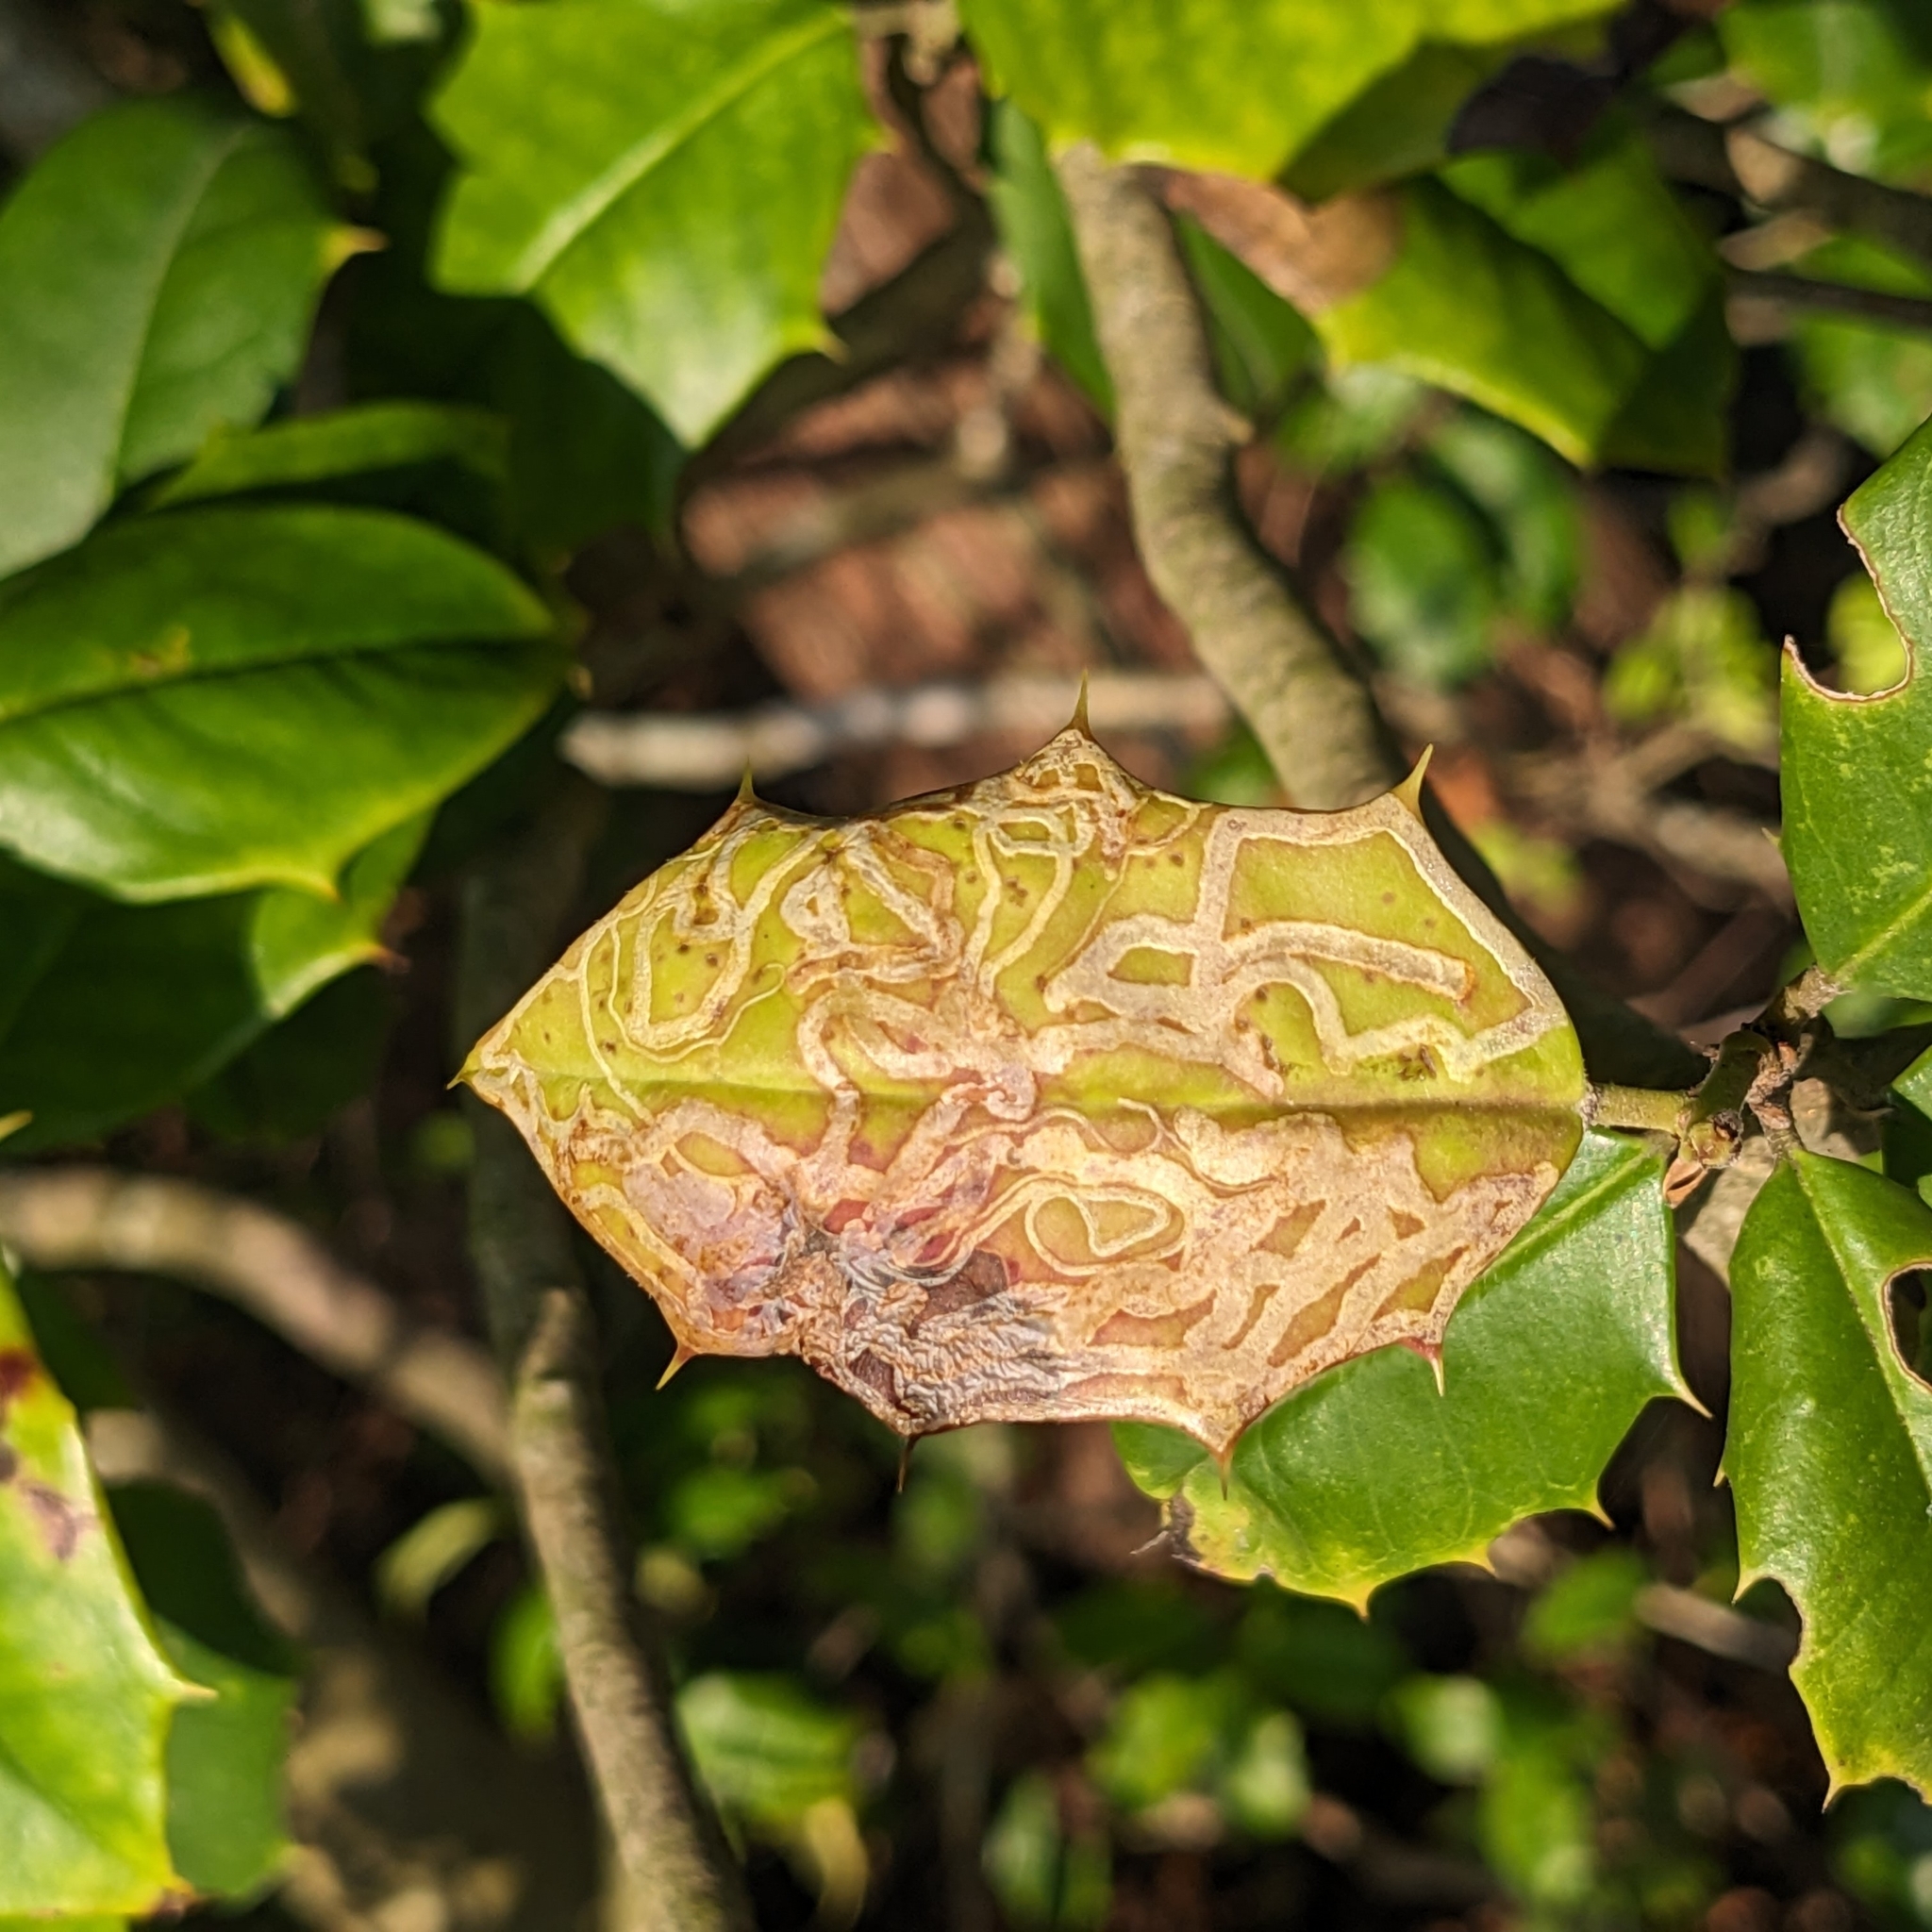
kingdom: Animalia
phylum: Arthropoda
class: Insecta
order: Diptera
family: Agromyzidae
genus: Phytomyza
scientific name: Phytomyza opacae
